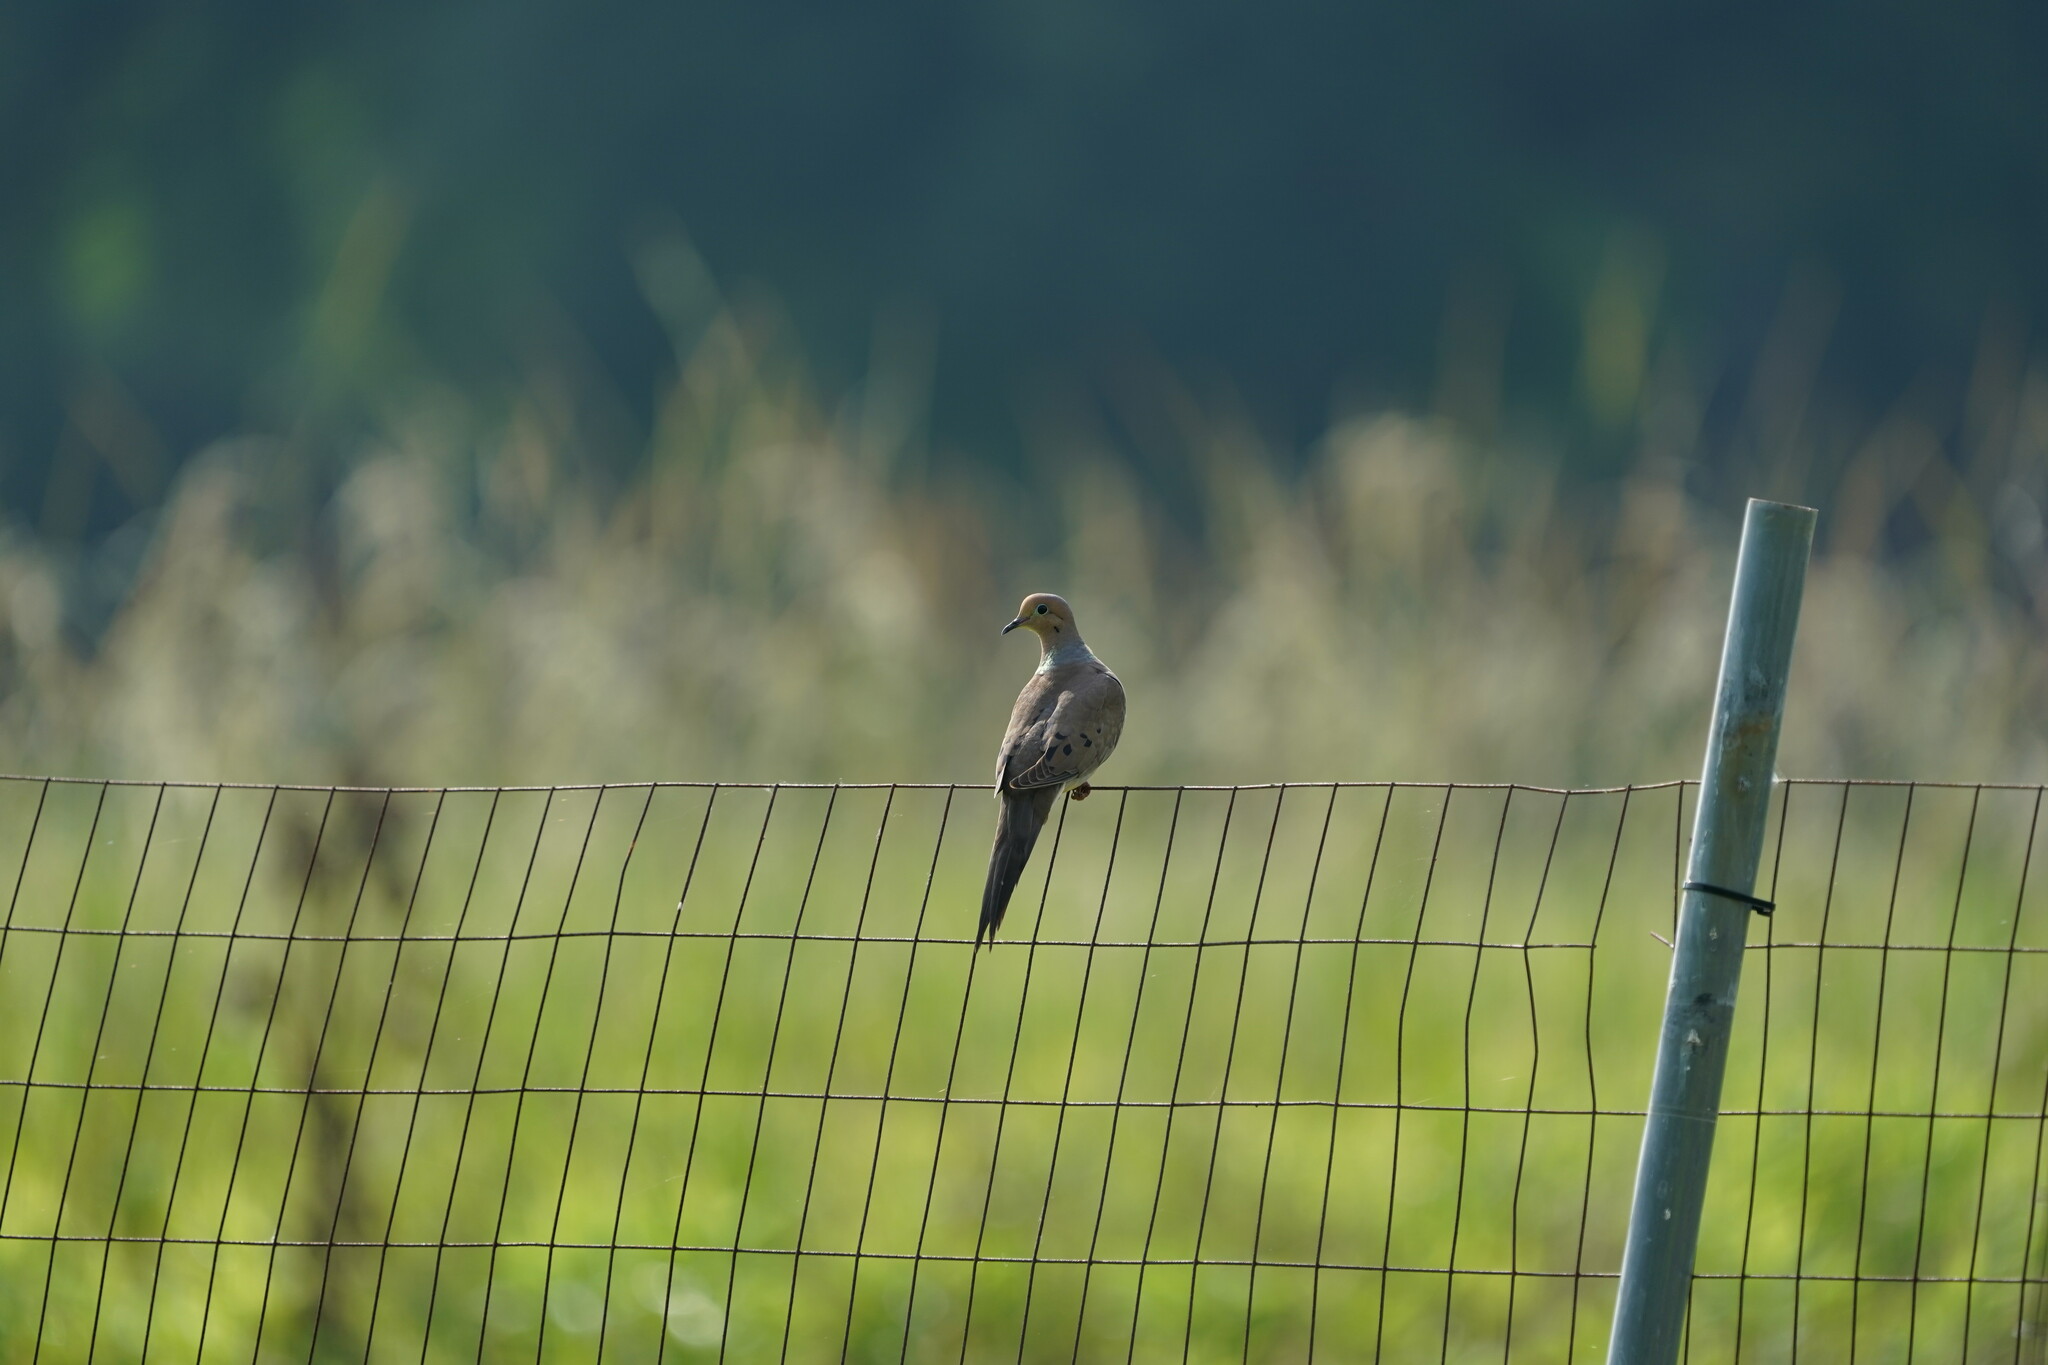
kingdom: Animalia
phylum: Chordata
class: Aves
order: Columbiformes
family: Columbidae
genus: Zenaida
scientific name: Zenaida macroura
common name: Mourning dove
